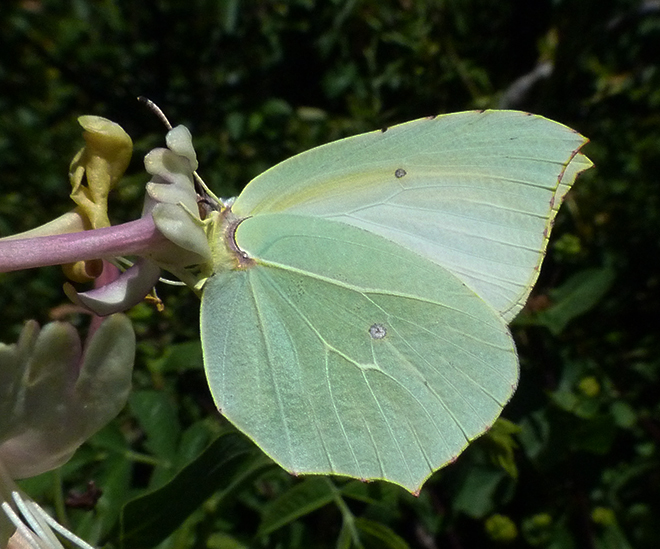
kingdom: Animalia
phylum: Arthropoda
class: Insecta
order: Lepidoptera
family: Pieridae
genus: Gonepteryx
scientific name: Gonepteryx cleopatra
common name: Cleopatra
